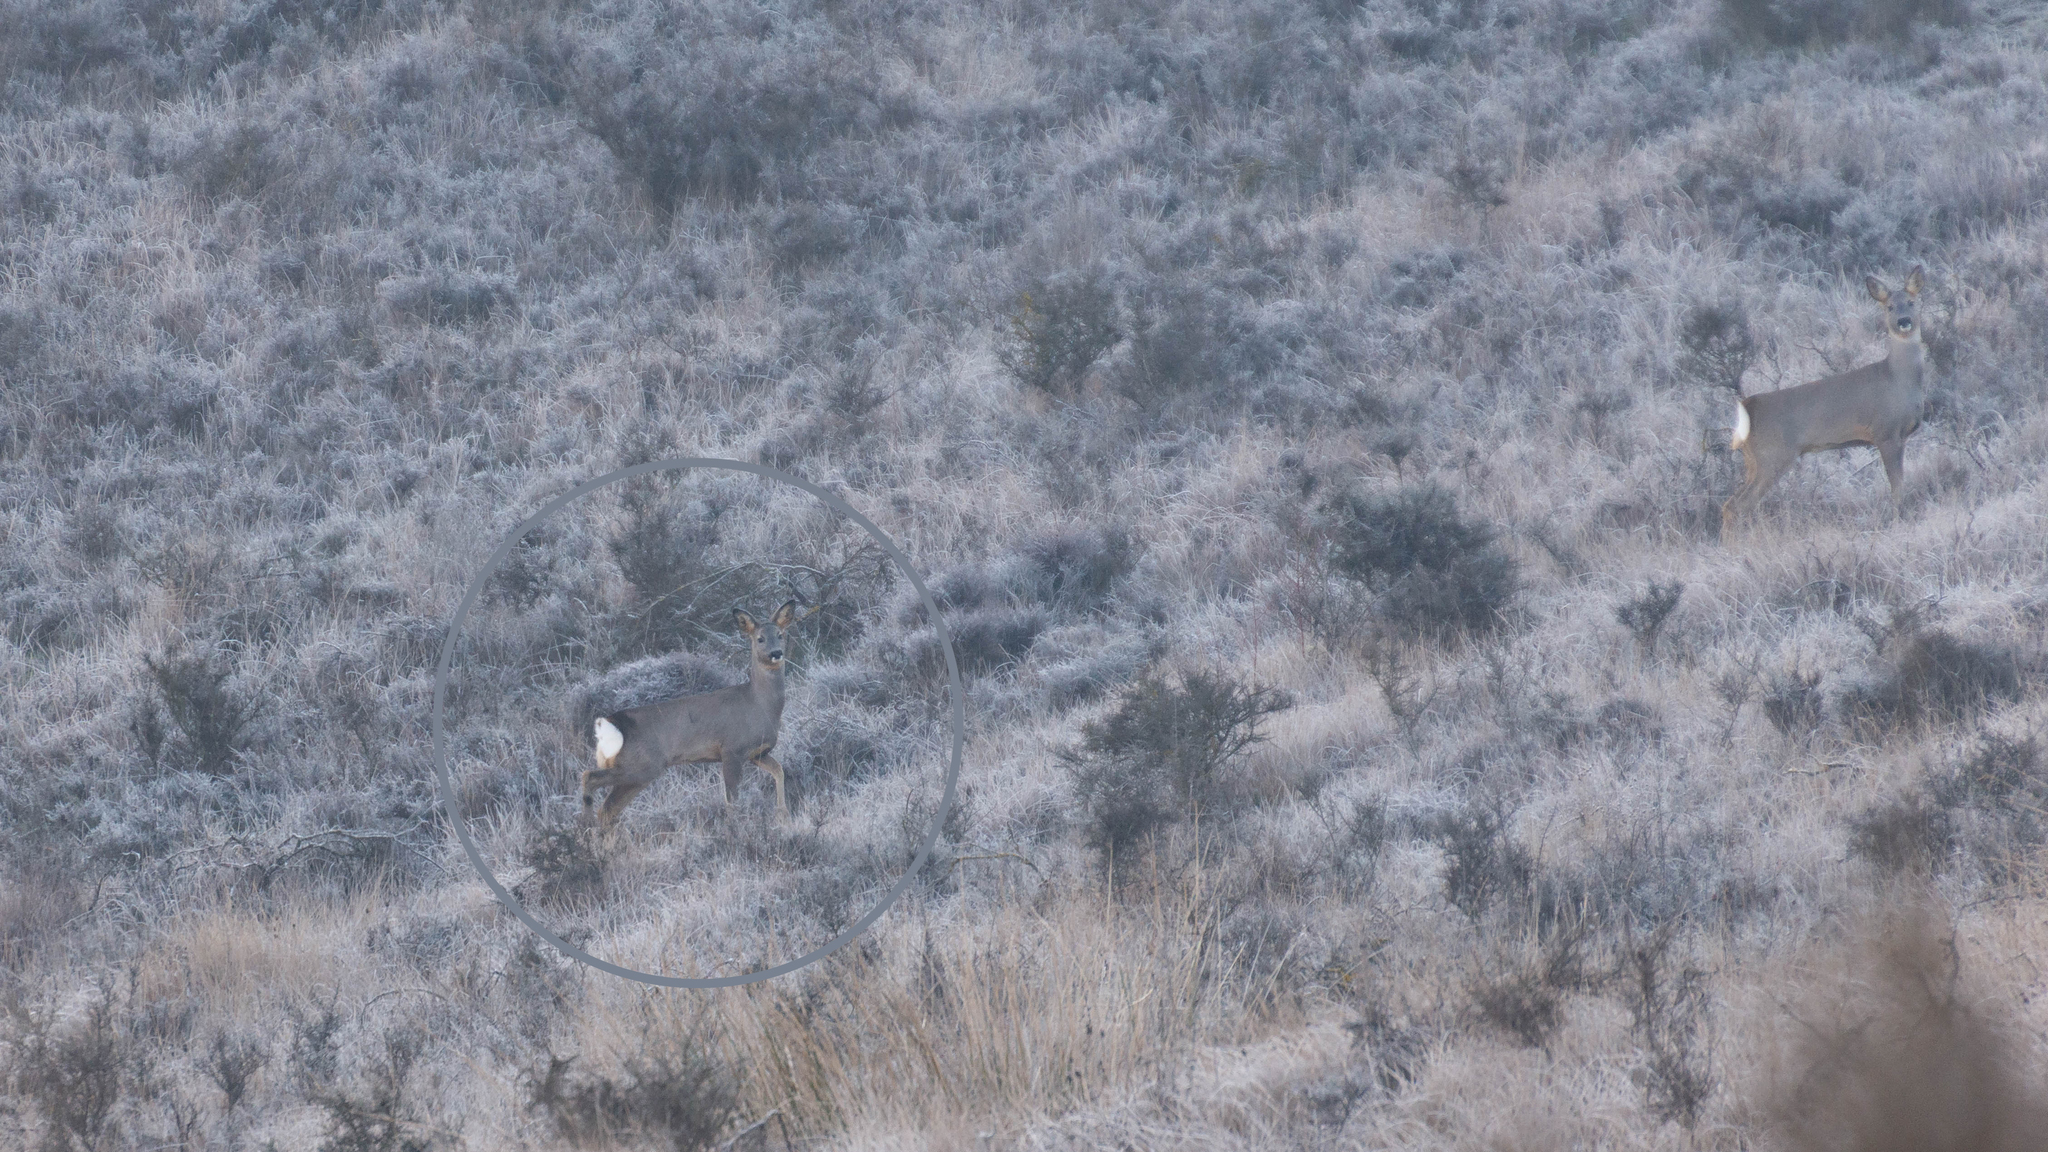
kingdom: Animalia
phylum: Chordata
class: Mammalia
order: Artiodactyla
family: Cervidae
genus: Capreolus
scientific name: Capreolus capreolus
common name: Western roe deer
